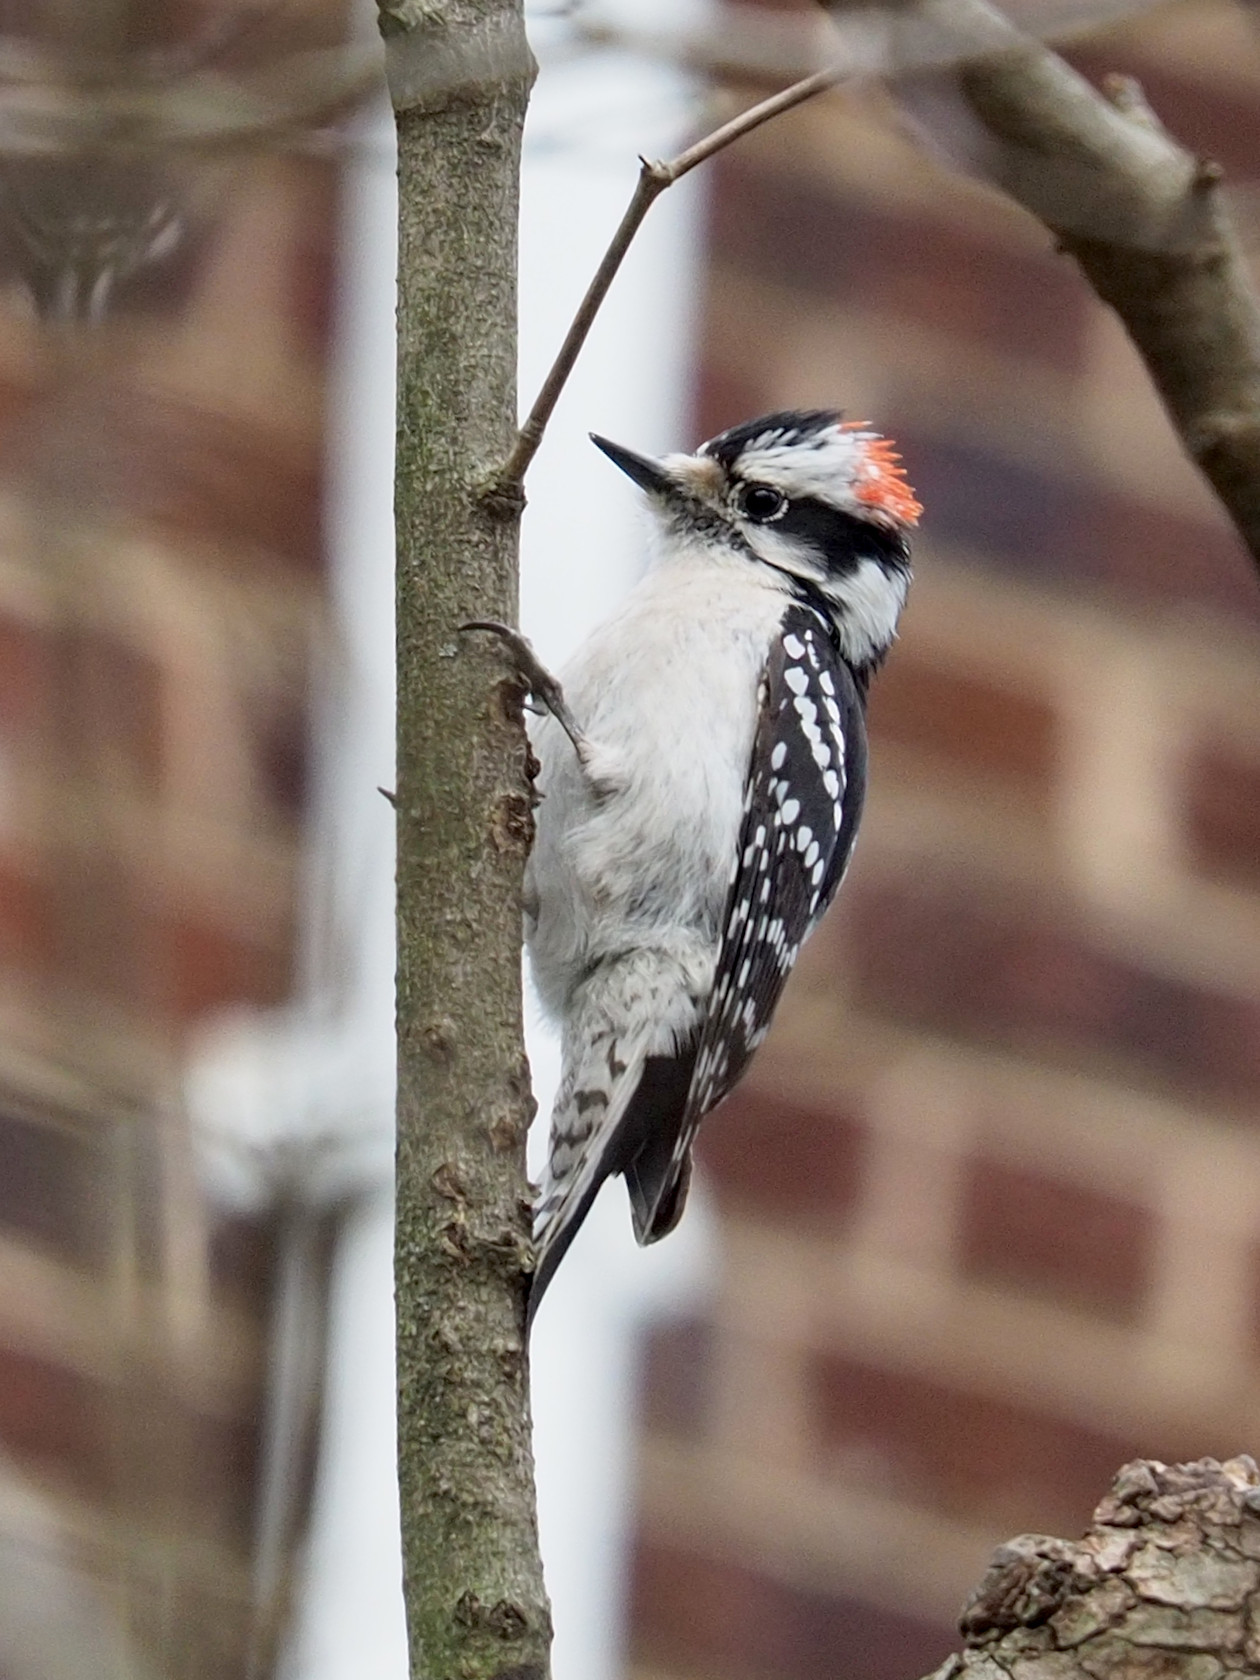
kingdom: Animalia
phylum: Chordata
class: Aves
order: Piciformes
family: Picidae
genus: Dryobates
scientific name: Dryobates pubescens
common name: Downy woodpecker
